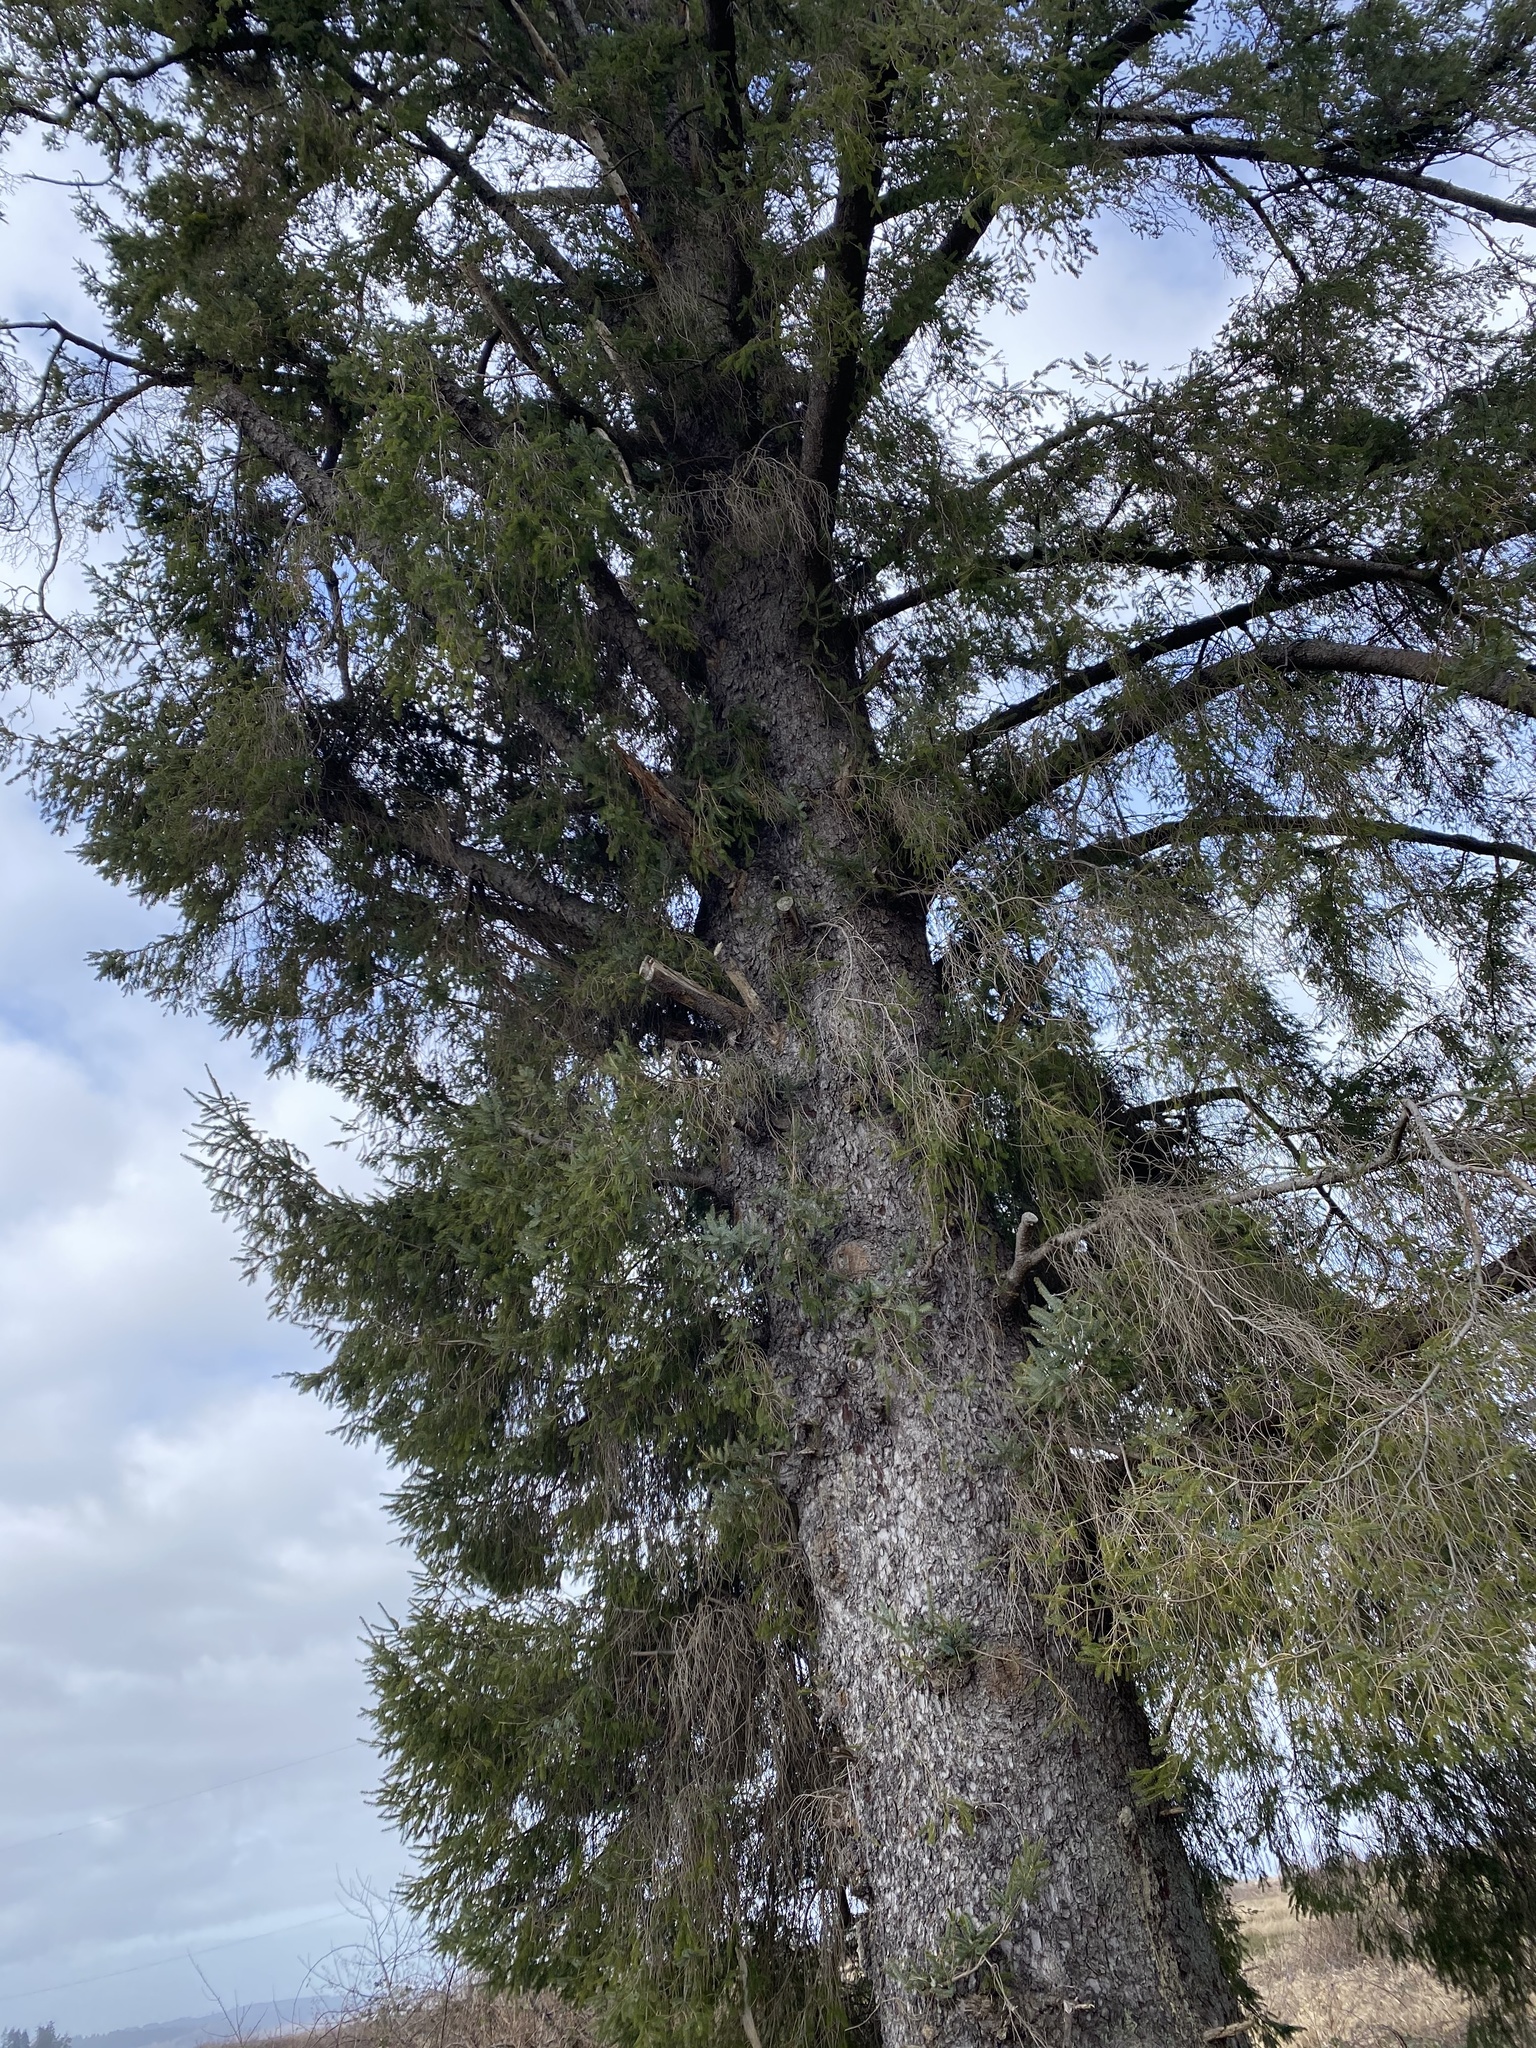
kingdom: Plantae
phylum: Tracheophyta
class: Pinopsida
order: Pinales
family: Pinaceae
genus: Picea
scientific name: Picea sitchensis
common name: Sitka spruce
